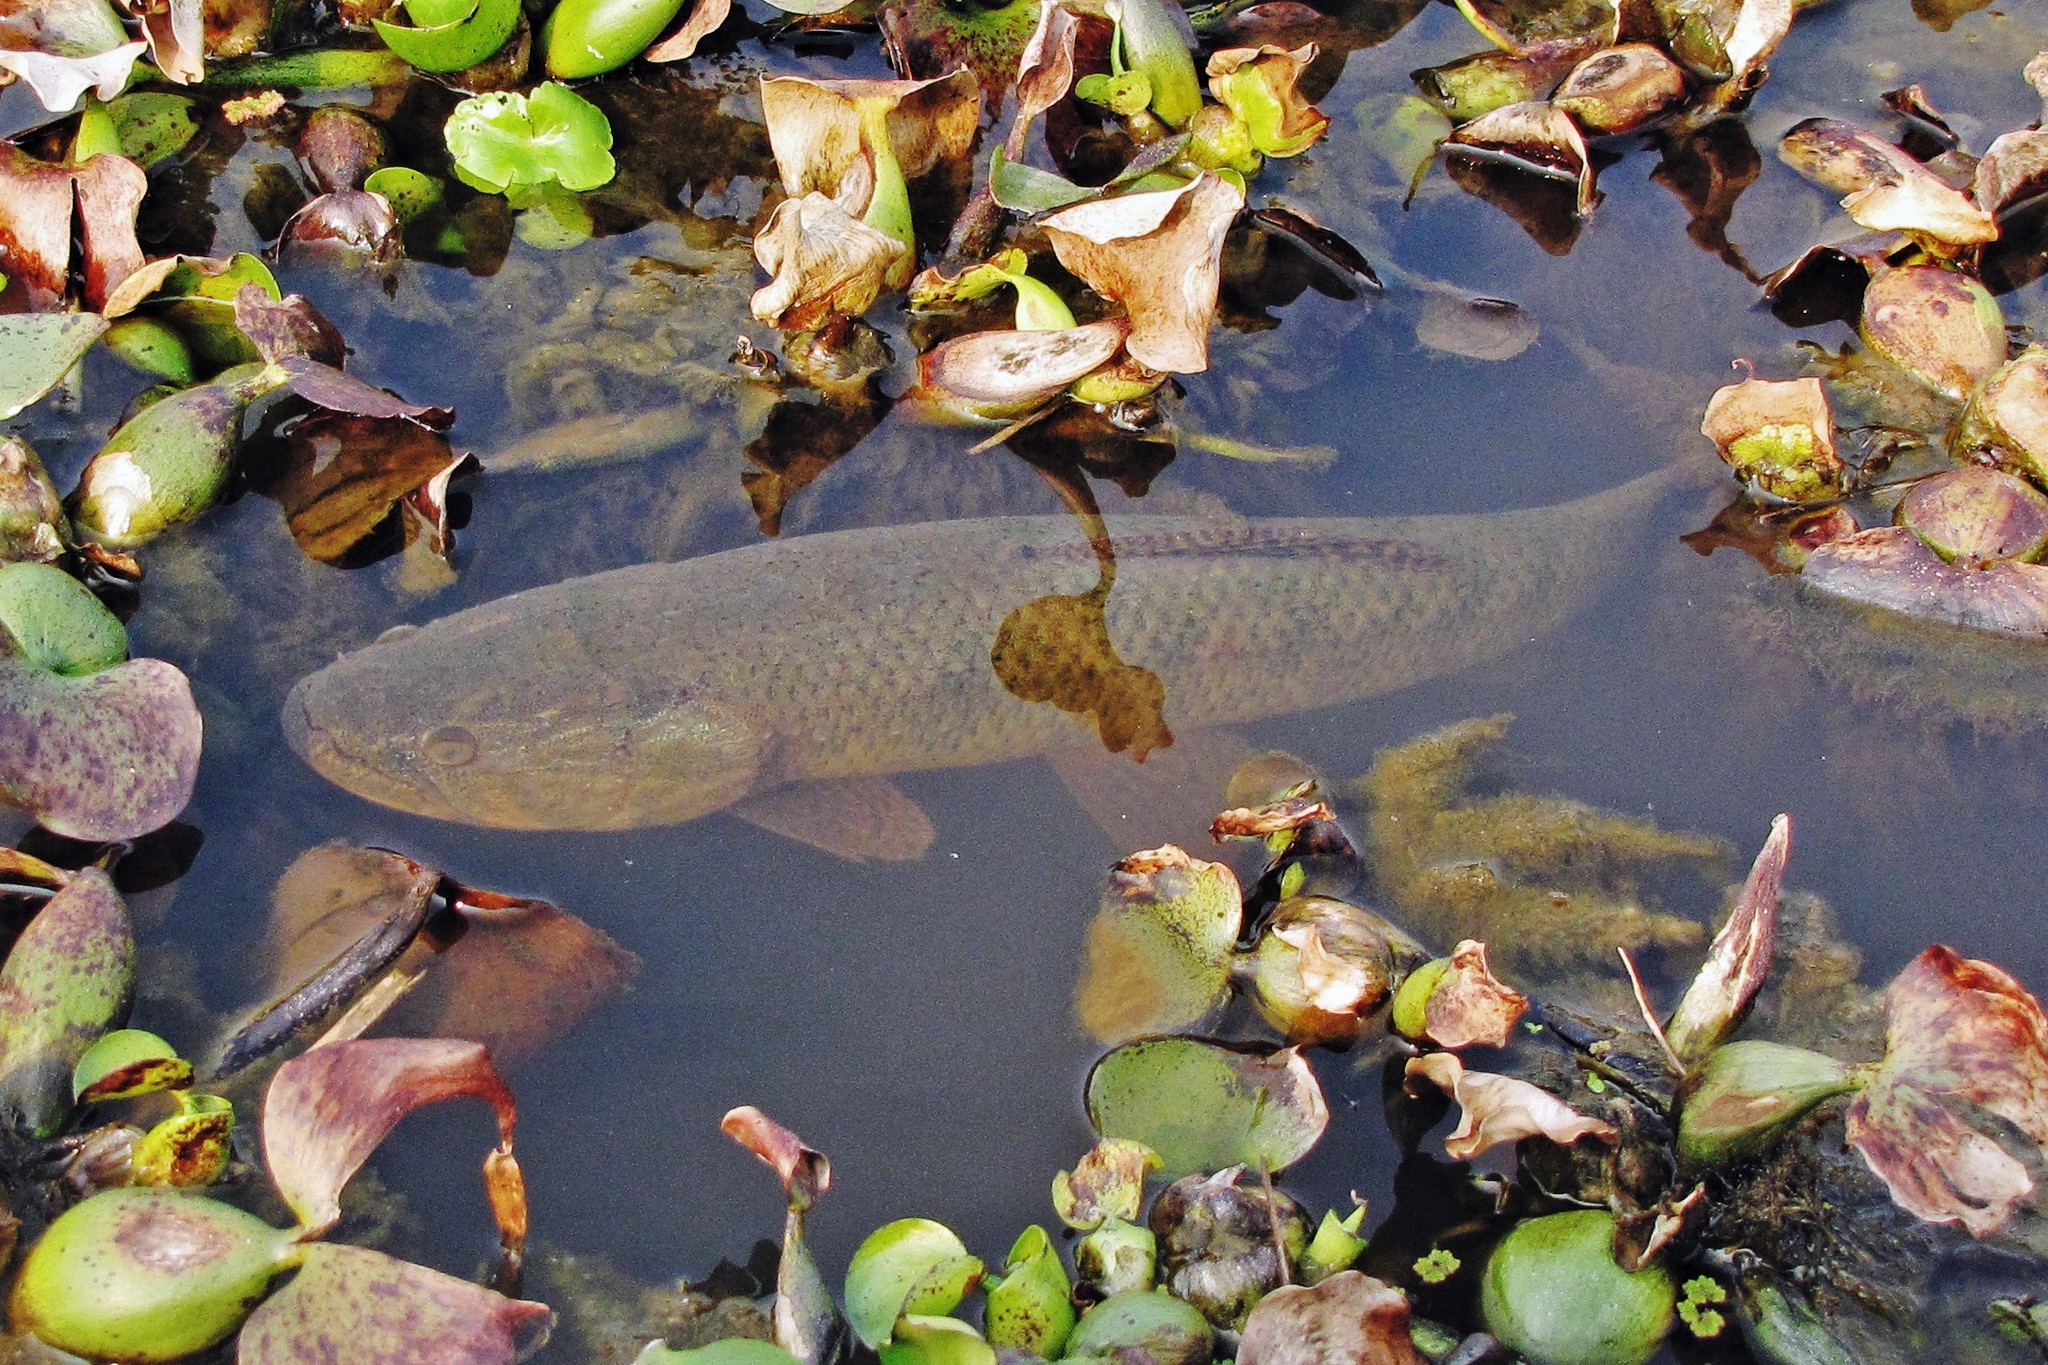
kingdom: Animalia
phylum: Chordata
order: Characiformes
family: Erythrinidae
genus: Hoplias
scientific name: Hoplias argentinensis
